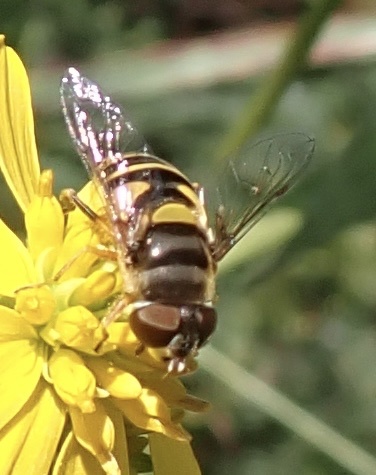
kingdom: Animalia
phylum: Arthropoda
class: Insecta
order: Diptera
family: Syrphidae
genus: Eristalis
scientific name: Eristalis transversa
